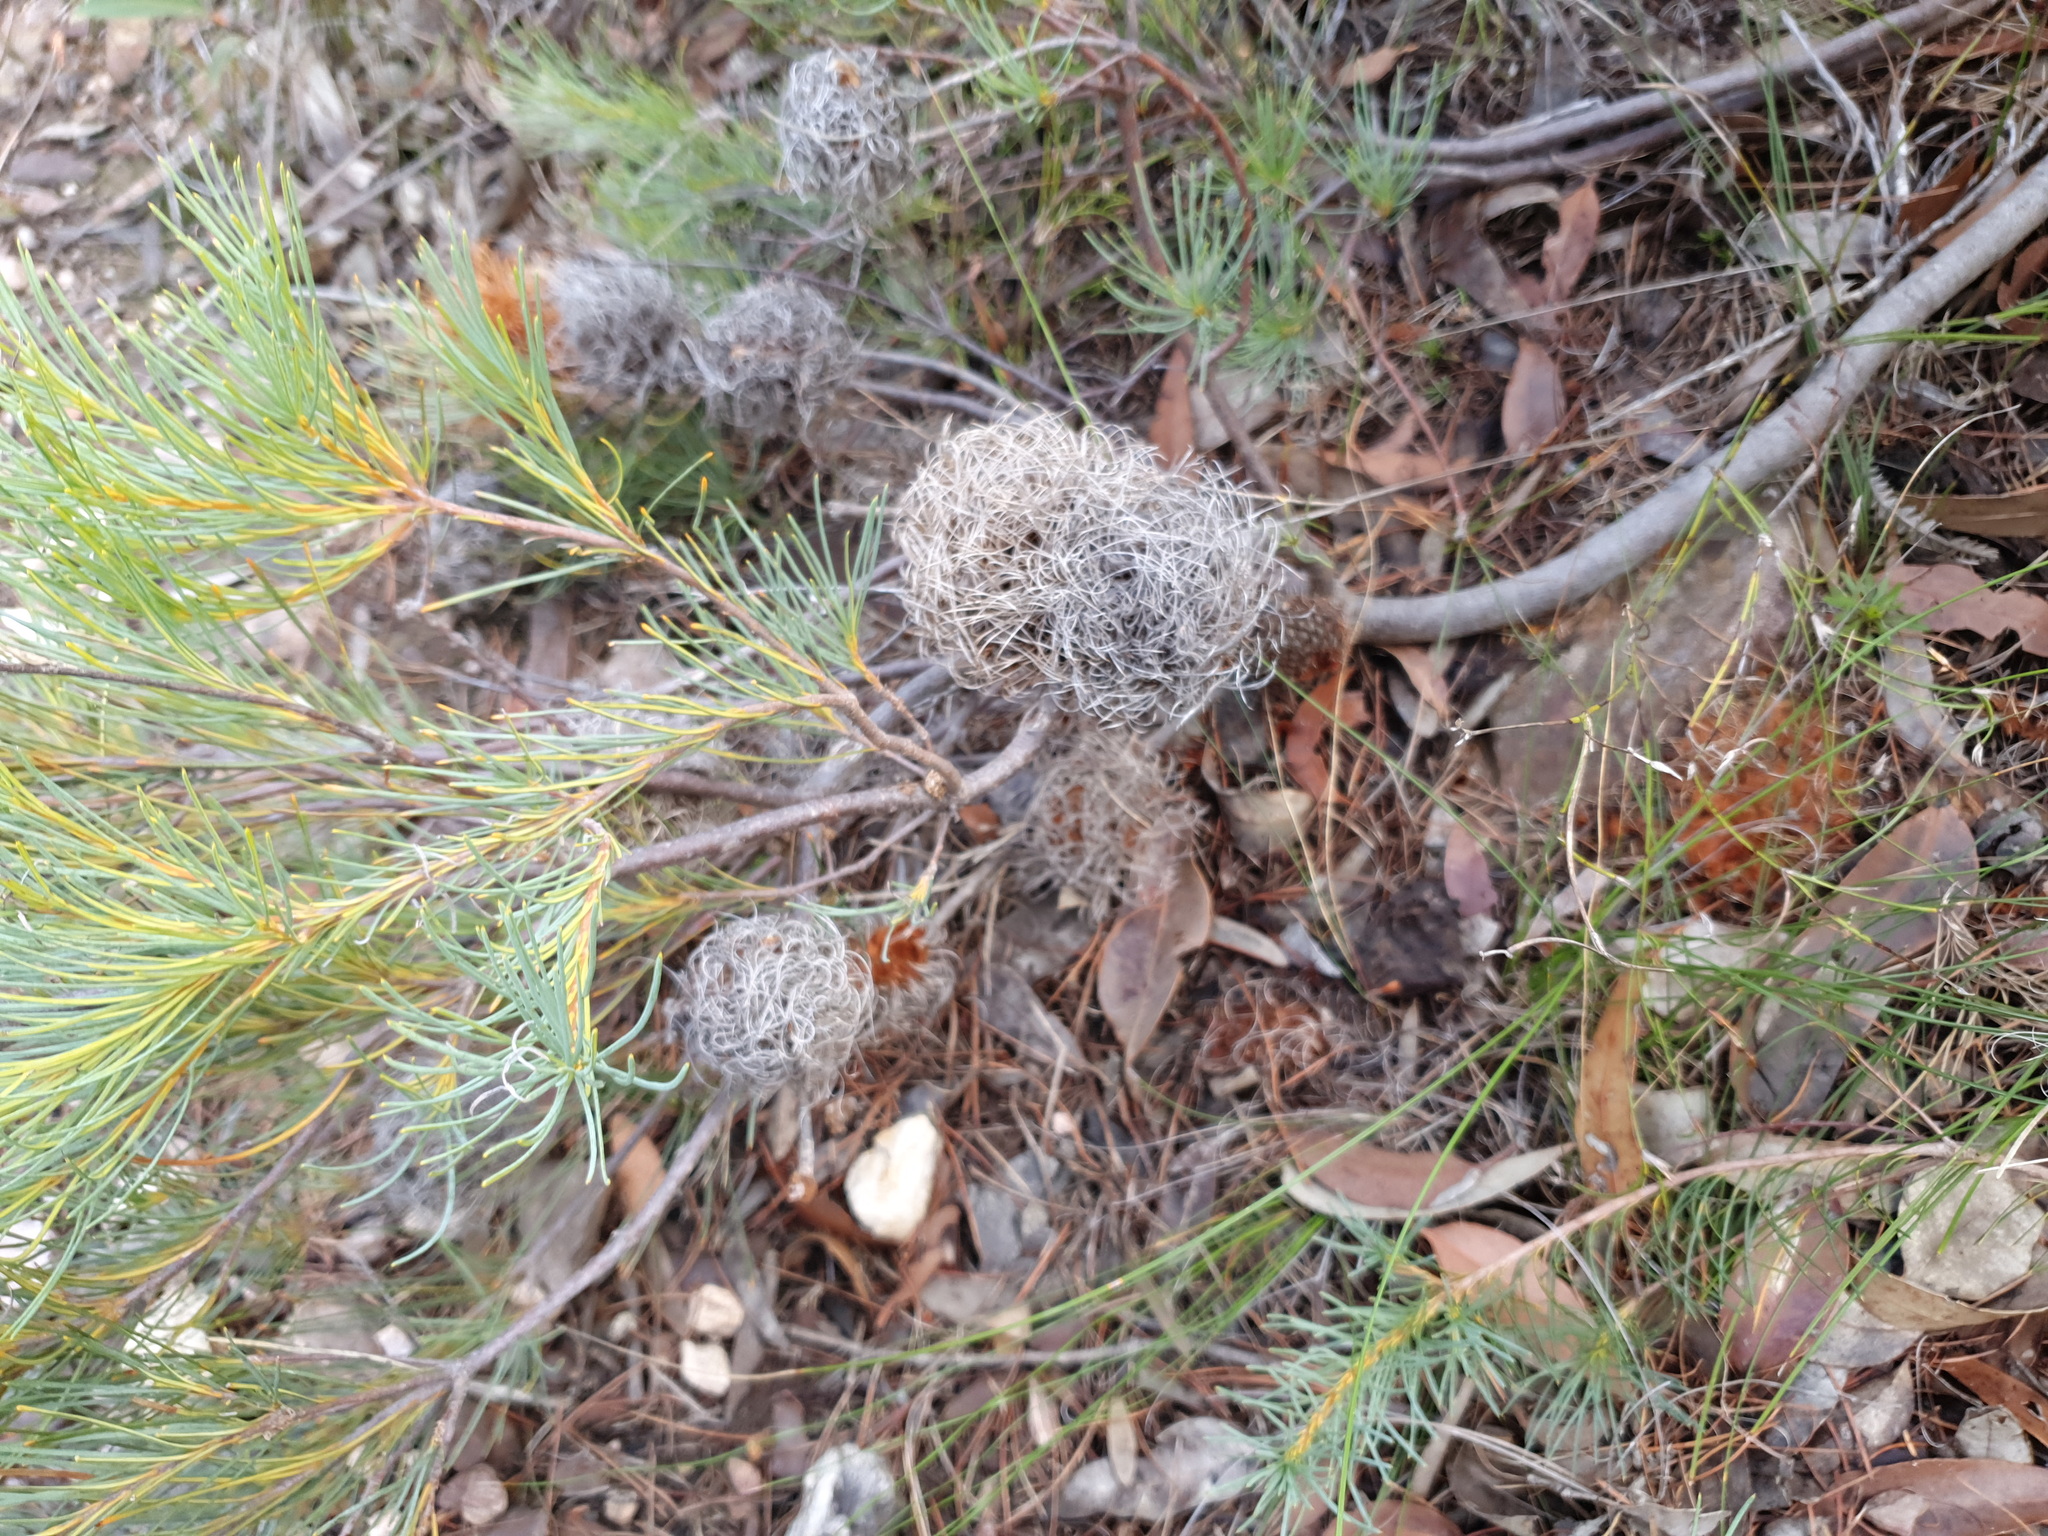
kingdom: Plantae
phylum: Tracheophyta
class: Magnoliopsida
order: Proteales
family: Proteaceae
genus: Banksia
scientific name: Banksia sphaerocarpa
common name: Fox banksia
